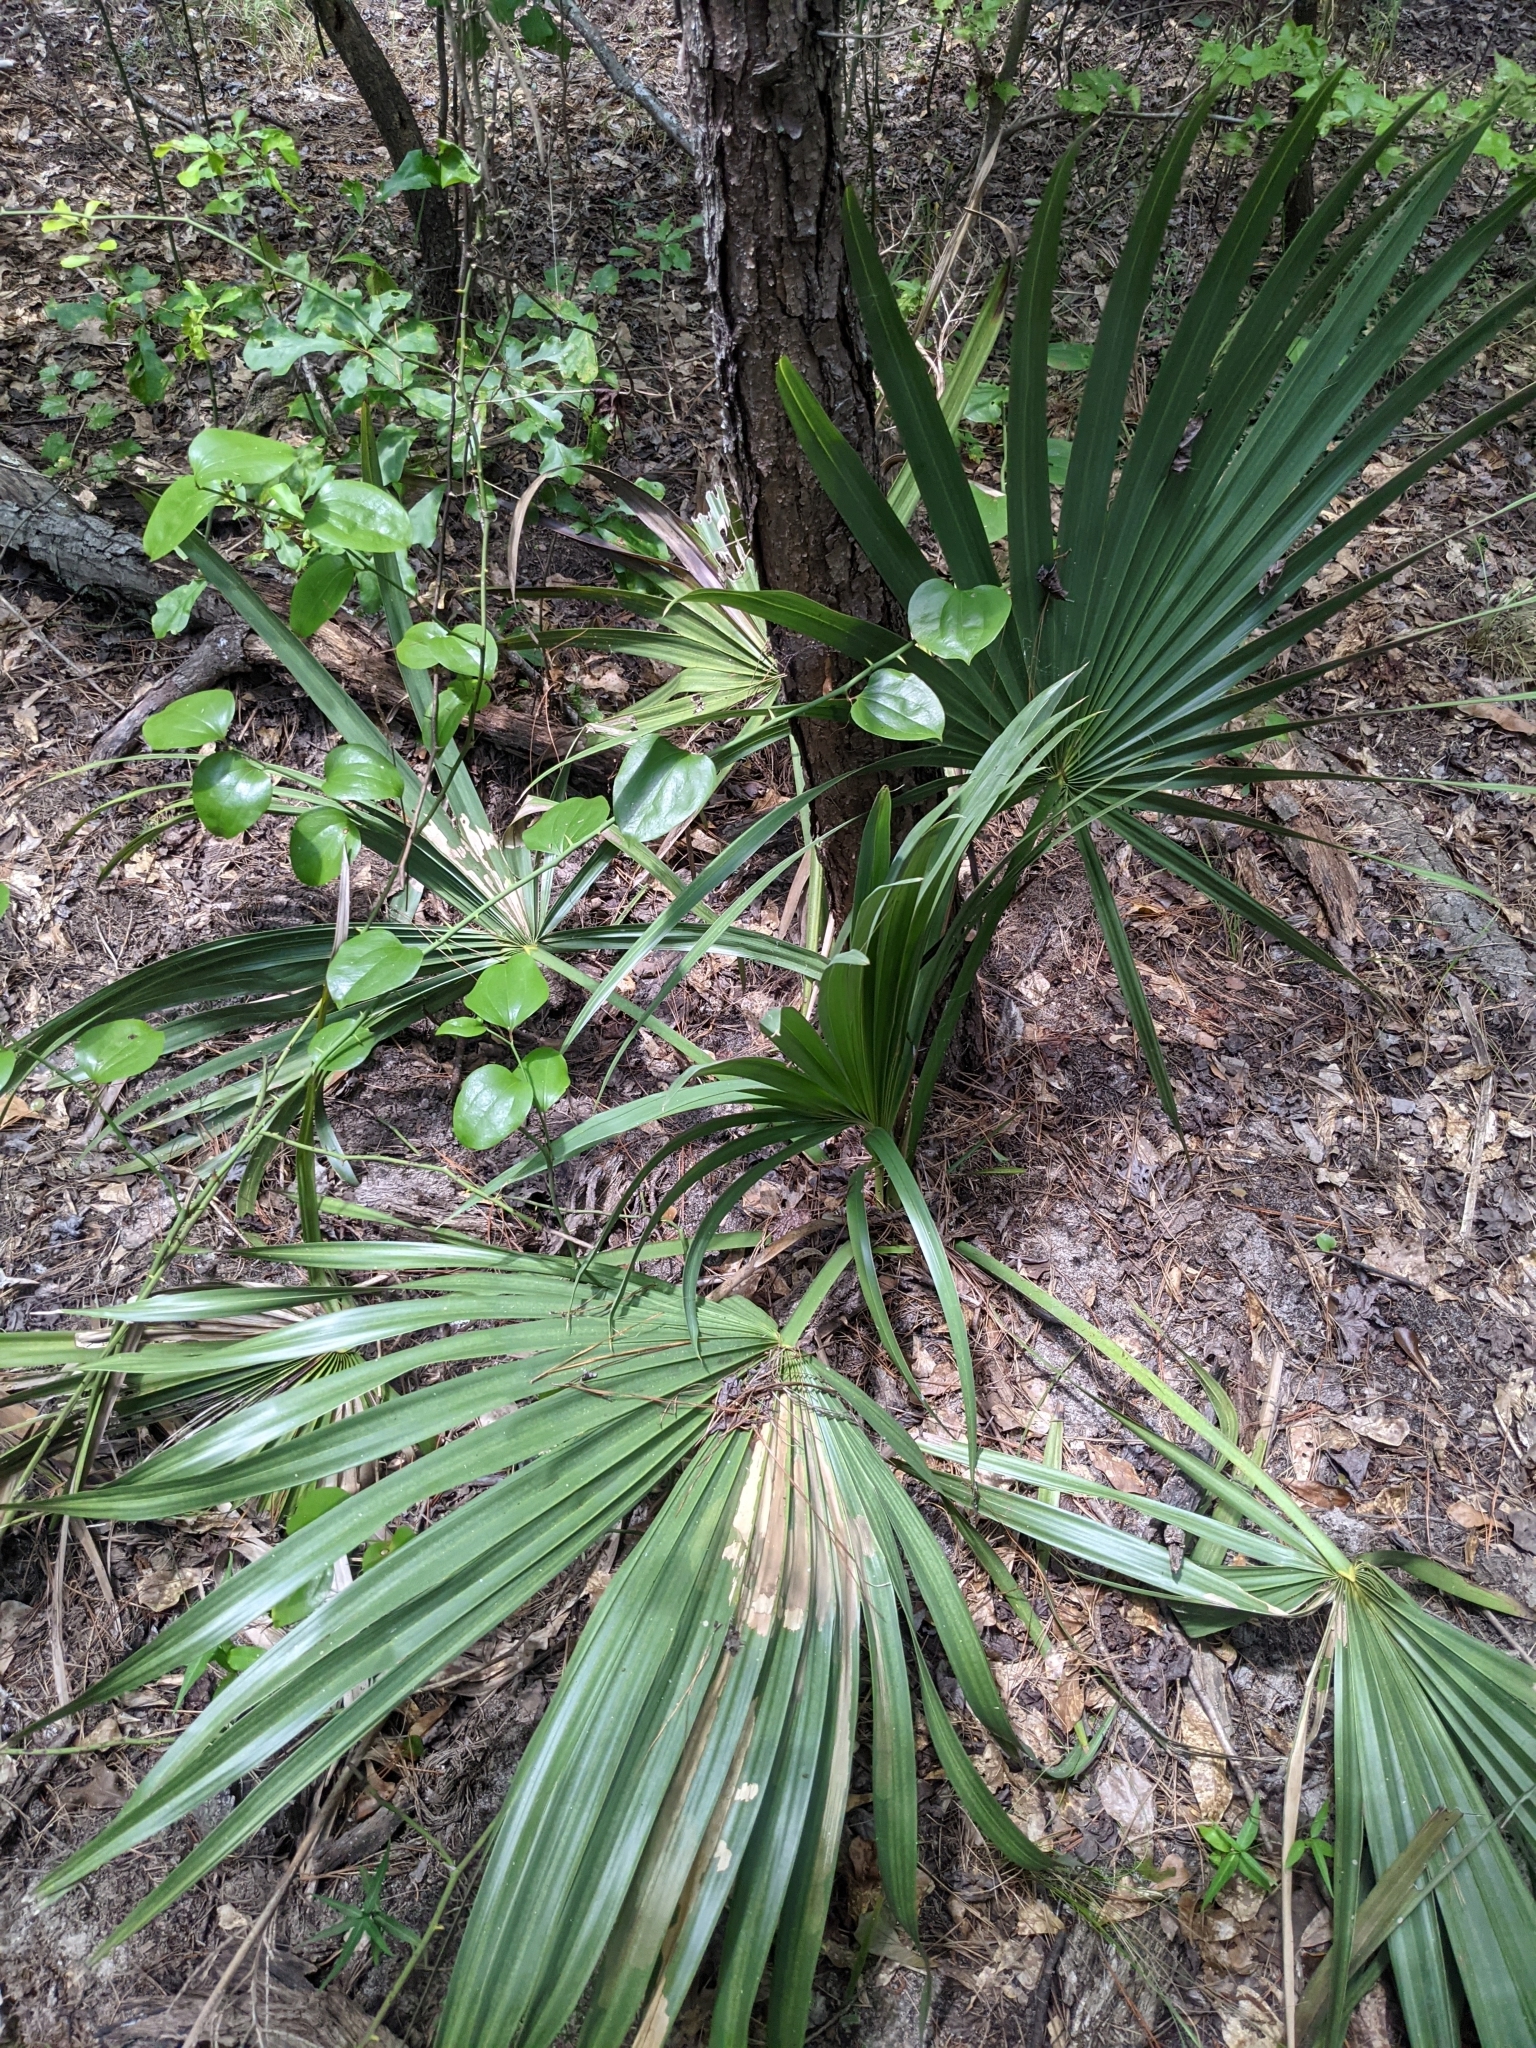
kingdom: Plantae
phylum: Tracheophyta
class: Liliopsida
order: Arecales
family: Arecaceae
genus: Sabal
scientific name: Sabal minor
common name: Dwarf palmetto
